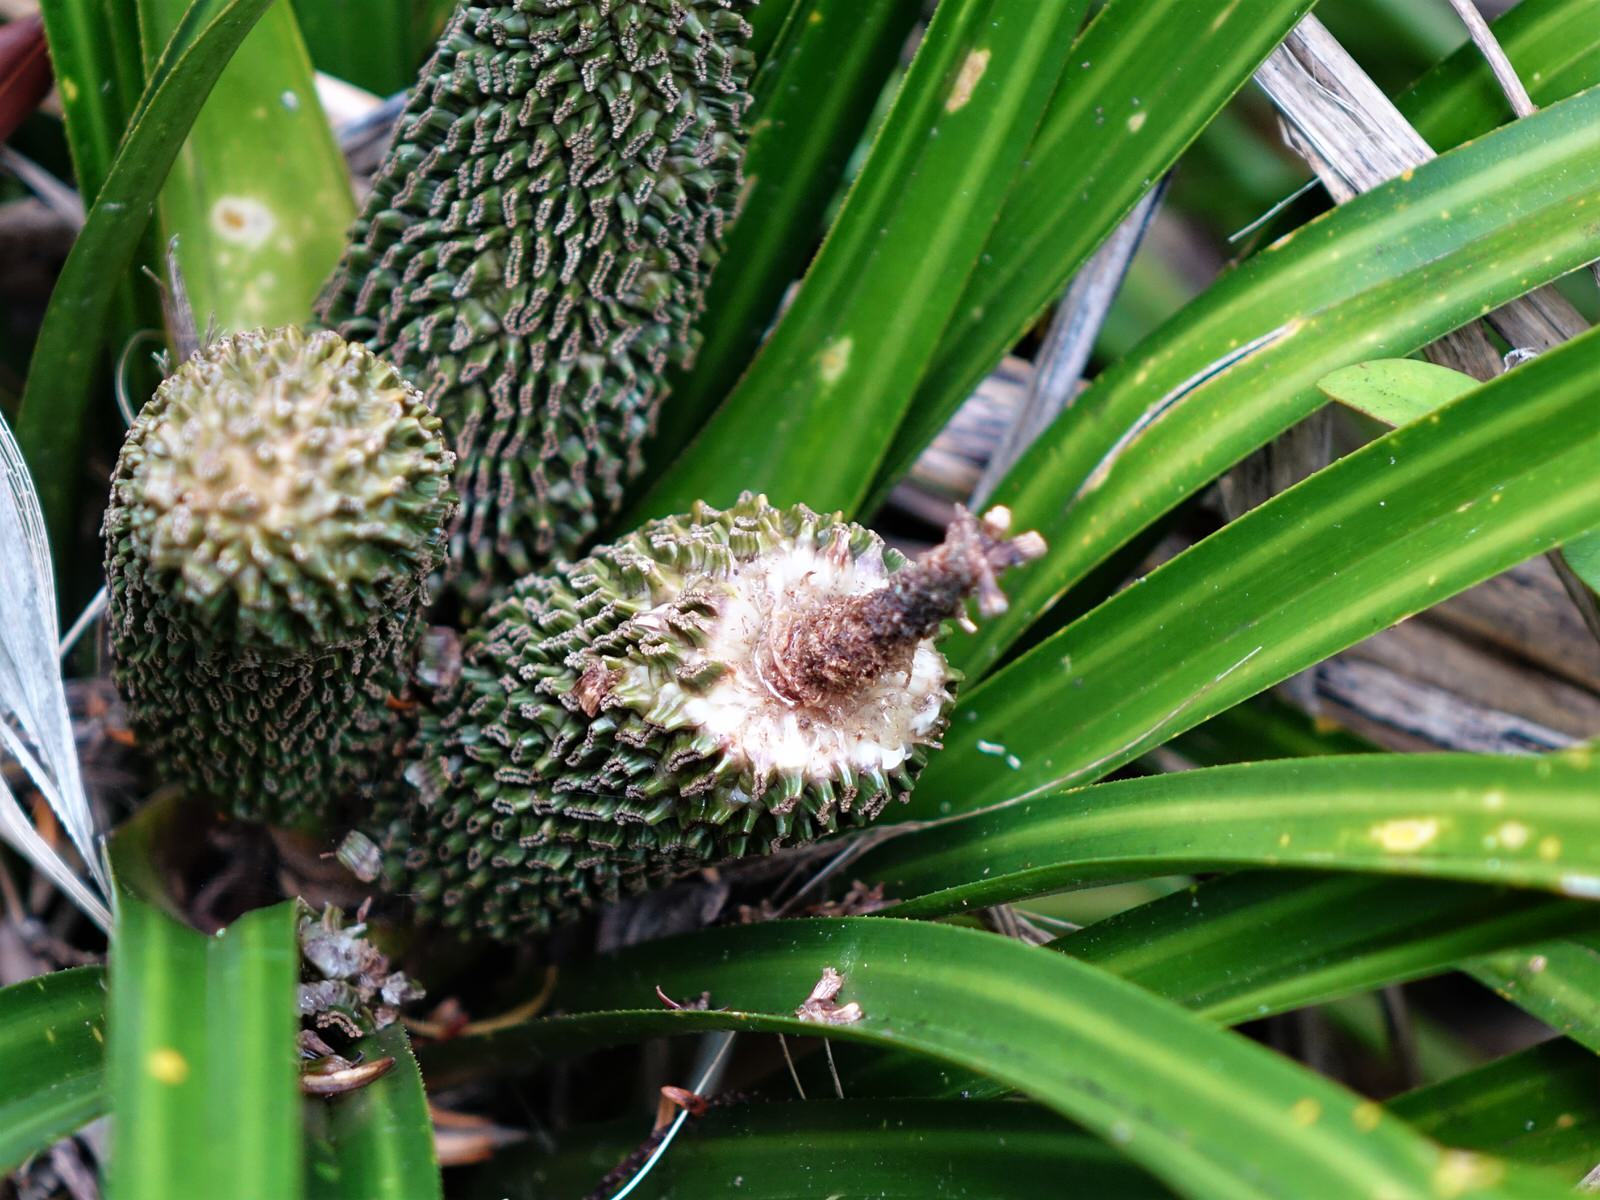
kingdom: Plantae
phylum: Tracheophyta
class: Liliopsida
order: Pandanales
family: Pandanaceae
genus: Freycinetia
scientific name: Freycinetia banksii
